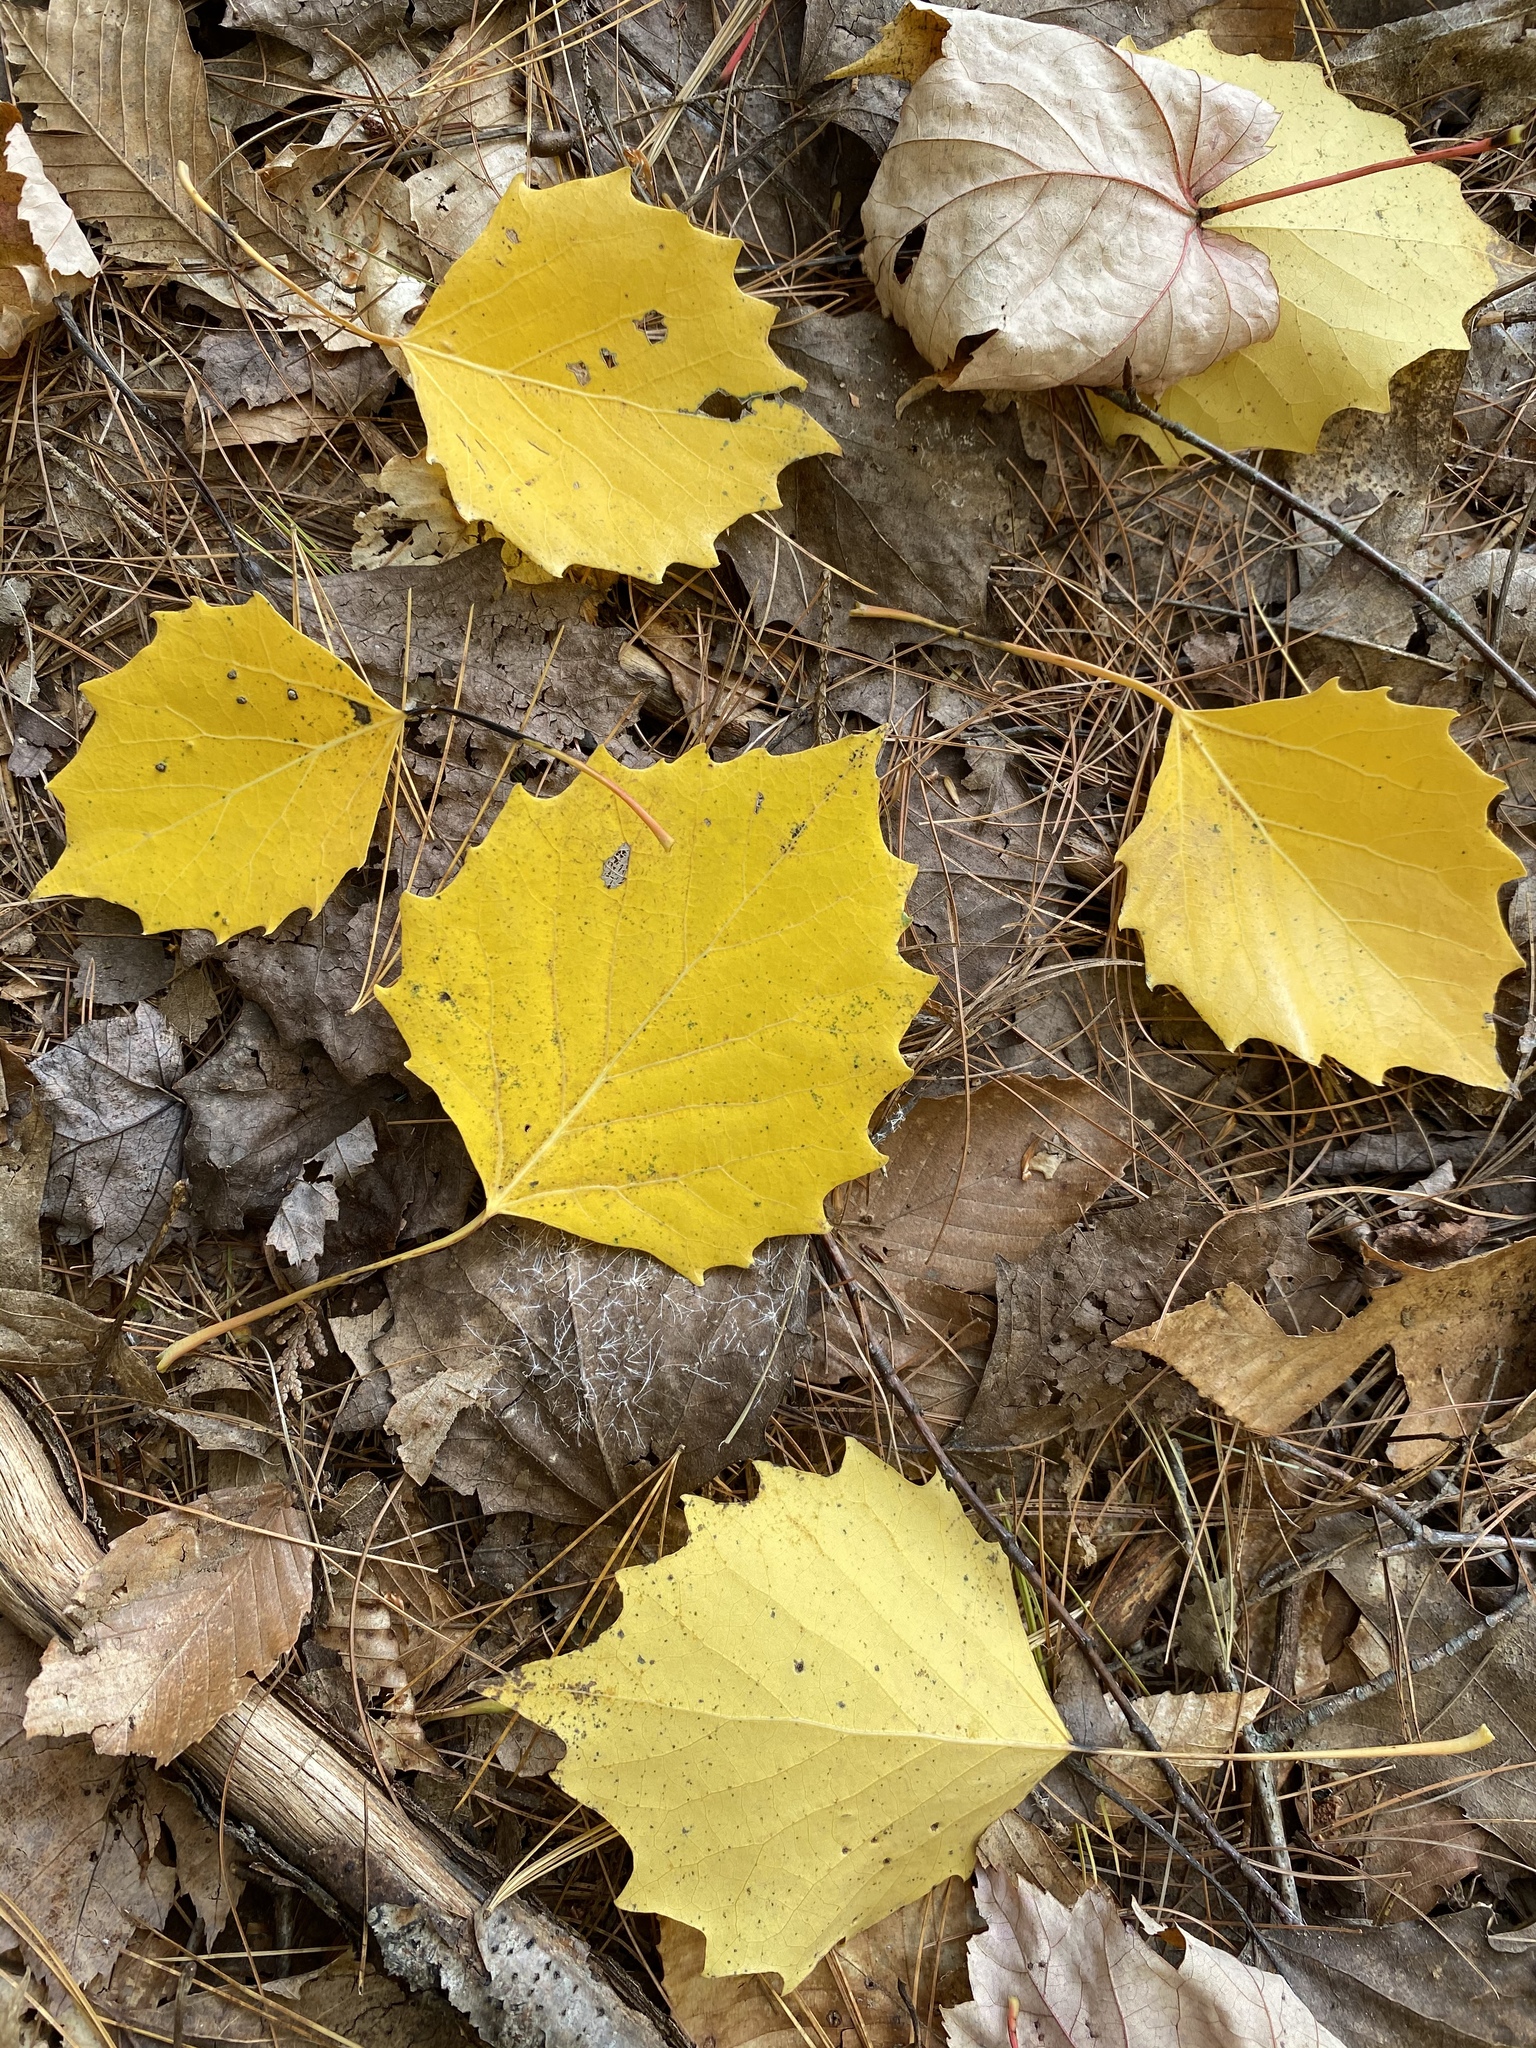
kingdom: Plantae
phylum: Tracheophyta
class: Magnoliopsida
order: Malpighiales
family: Salicaceae
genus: Populus
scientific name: Populus grandidentata
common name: Bigtooth aspen
